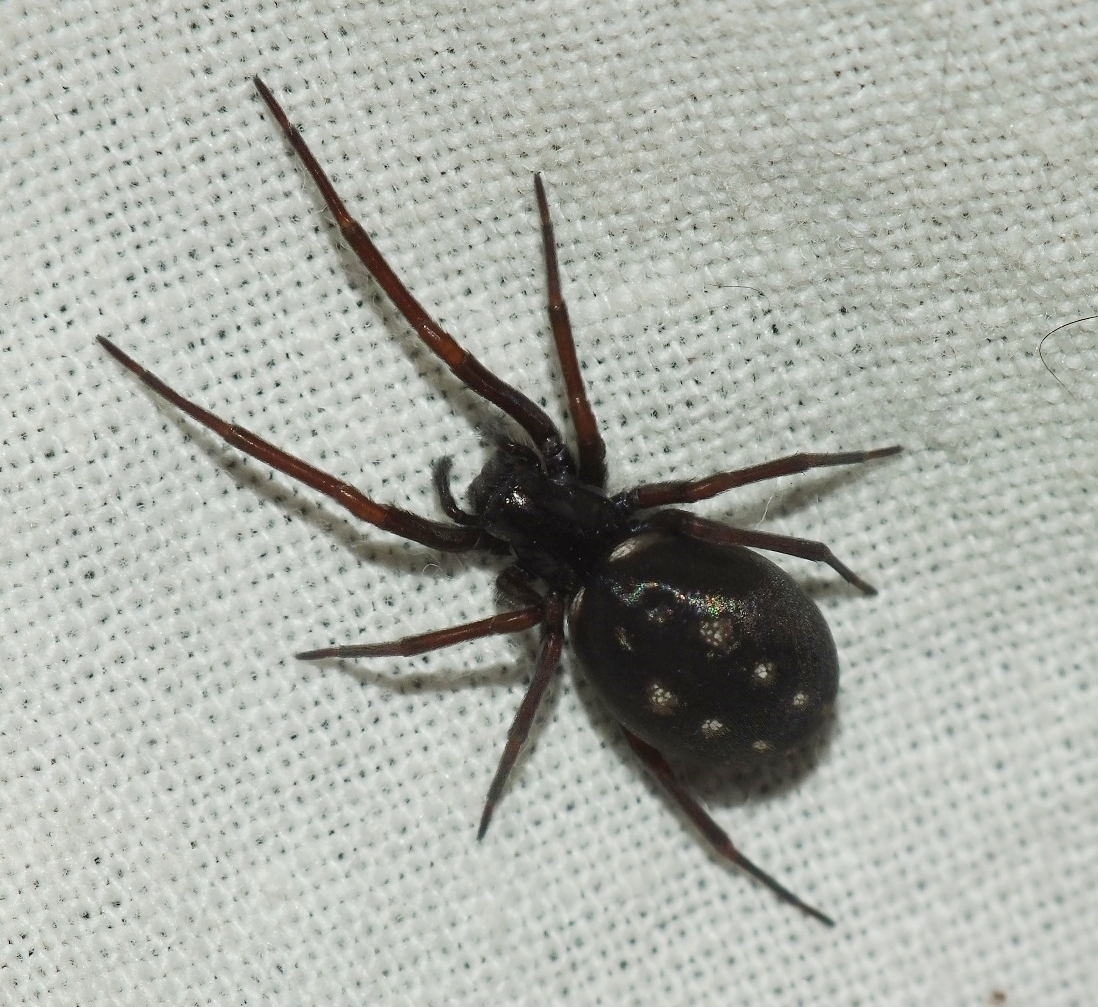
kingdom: Animalia
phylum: Arthropoda
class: Arachnida
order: Araneae
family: Titanoecidae
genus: Nurscia
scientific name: Nurscia albosignata
